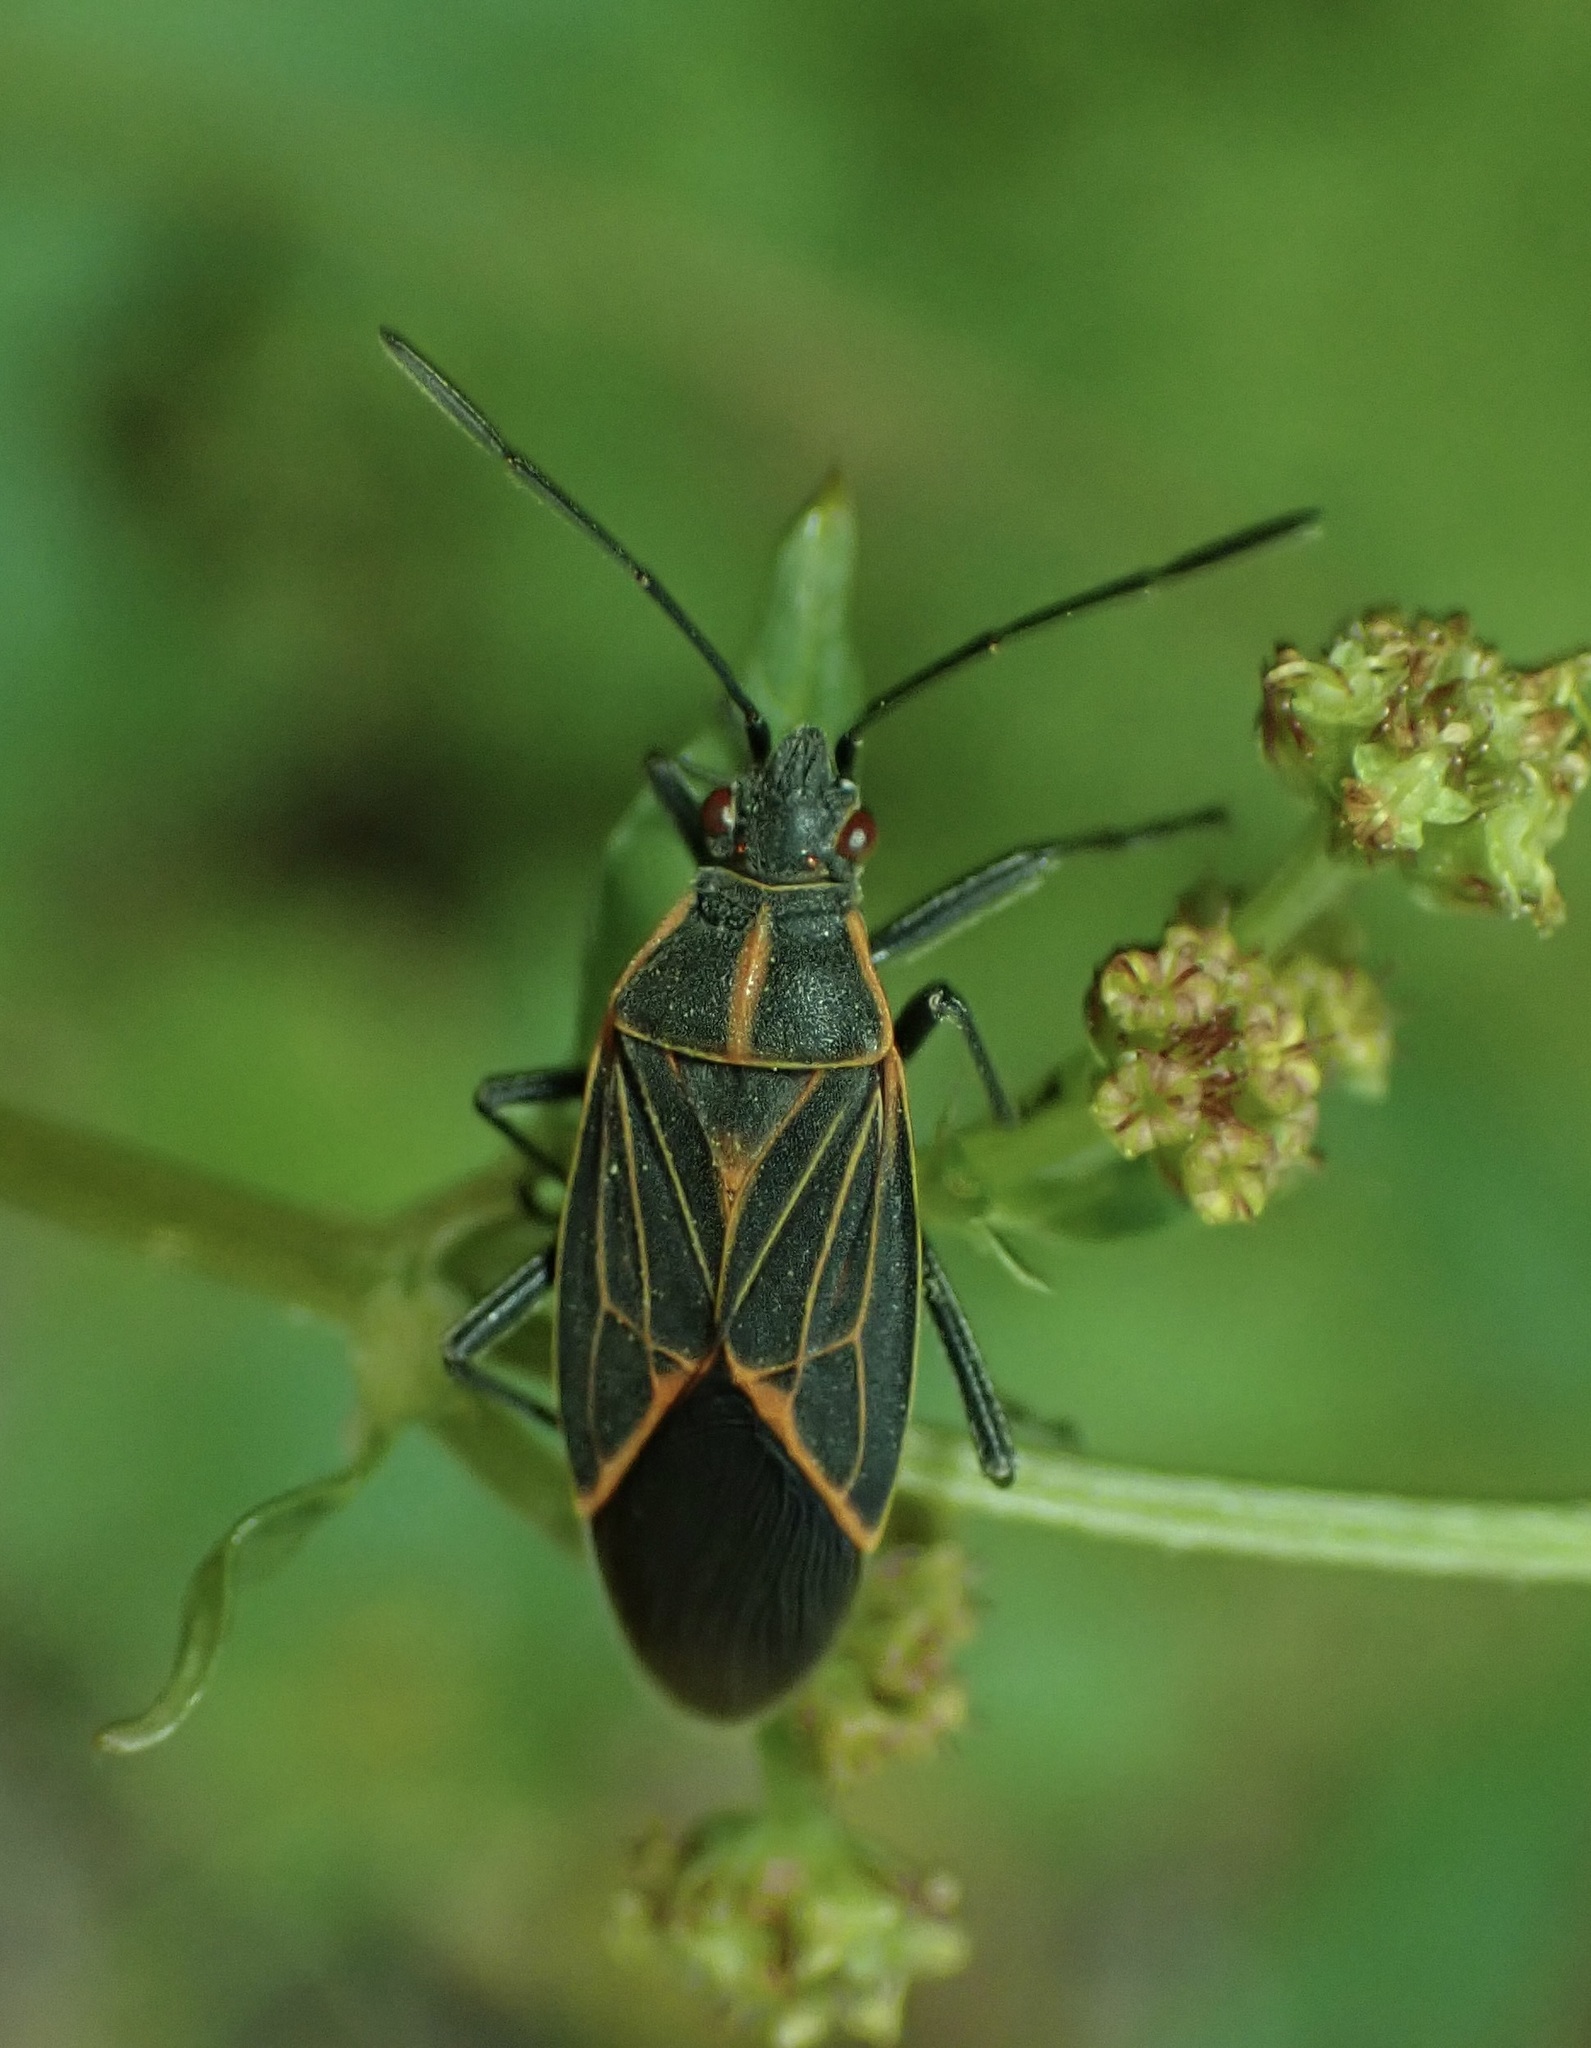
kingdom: Animalia
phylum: Arthropoda
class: Insecta
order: Hemiptera
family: Rhopalidae
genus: Boisea
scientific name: Boisea rubrolineata
